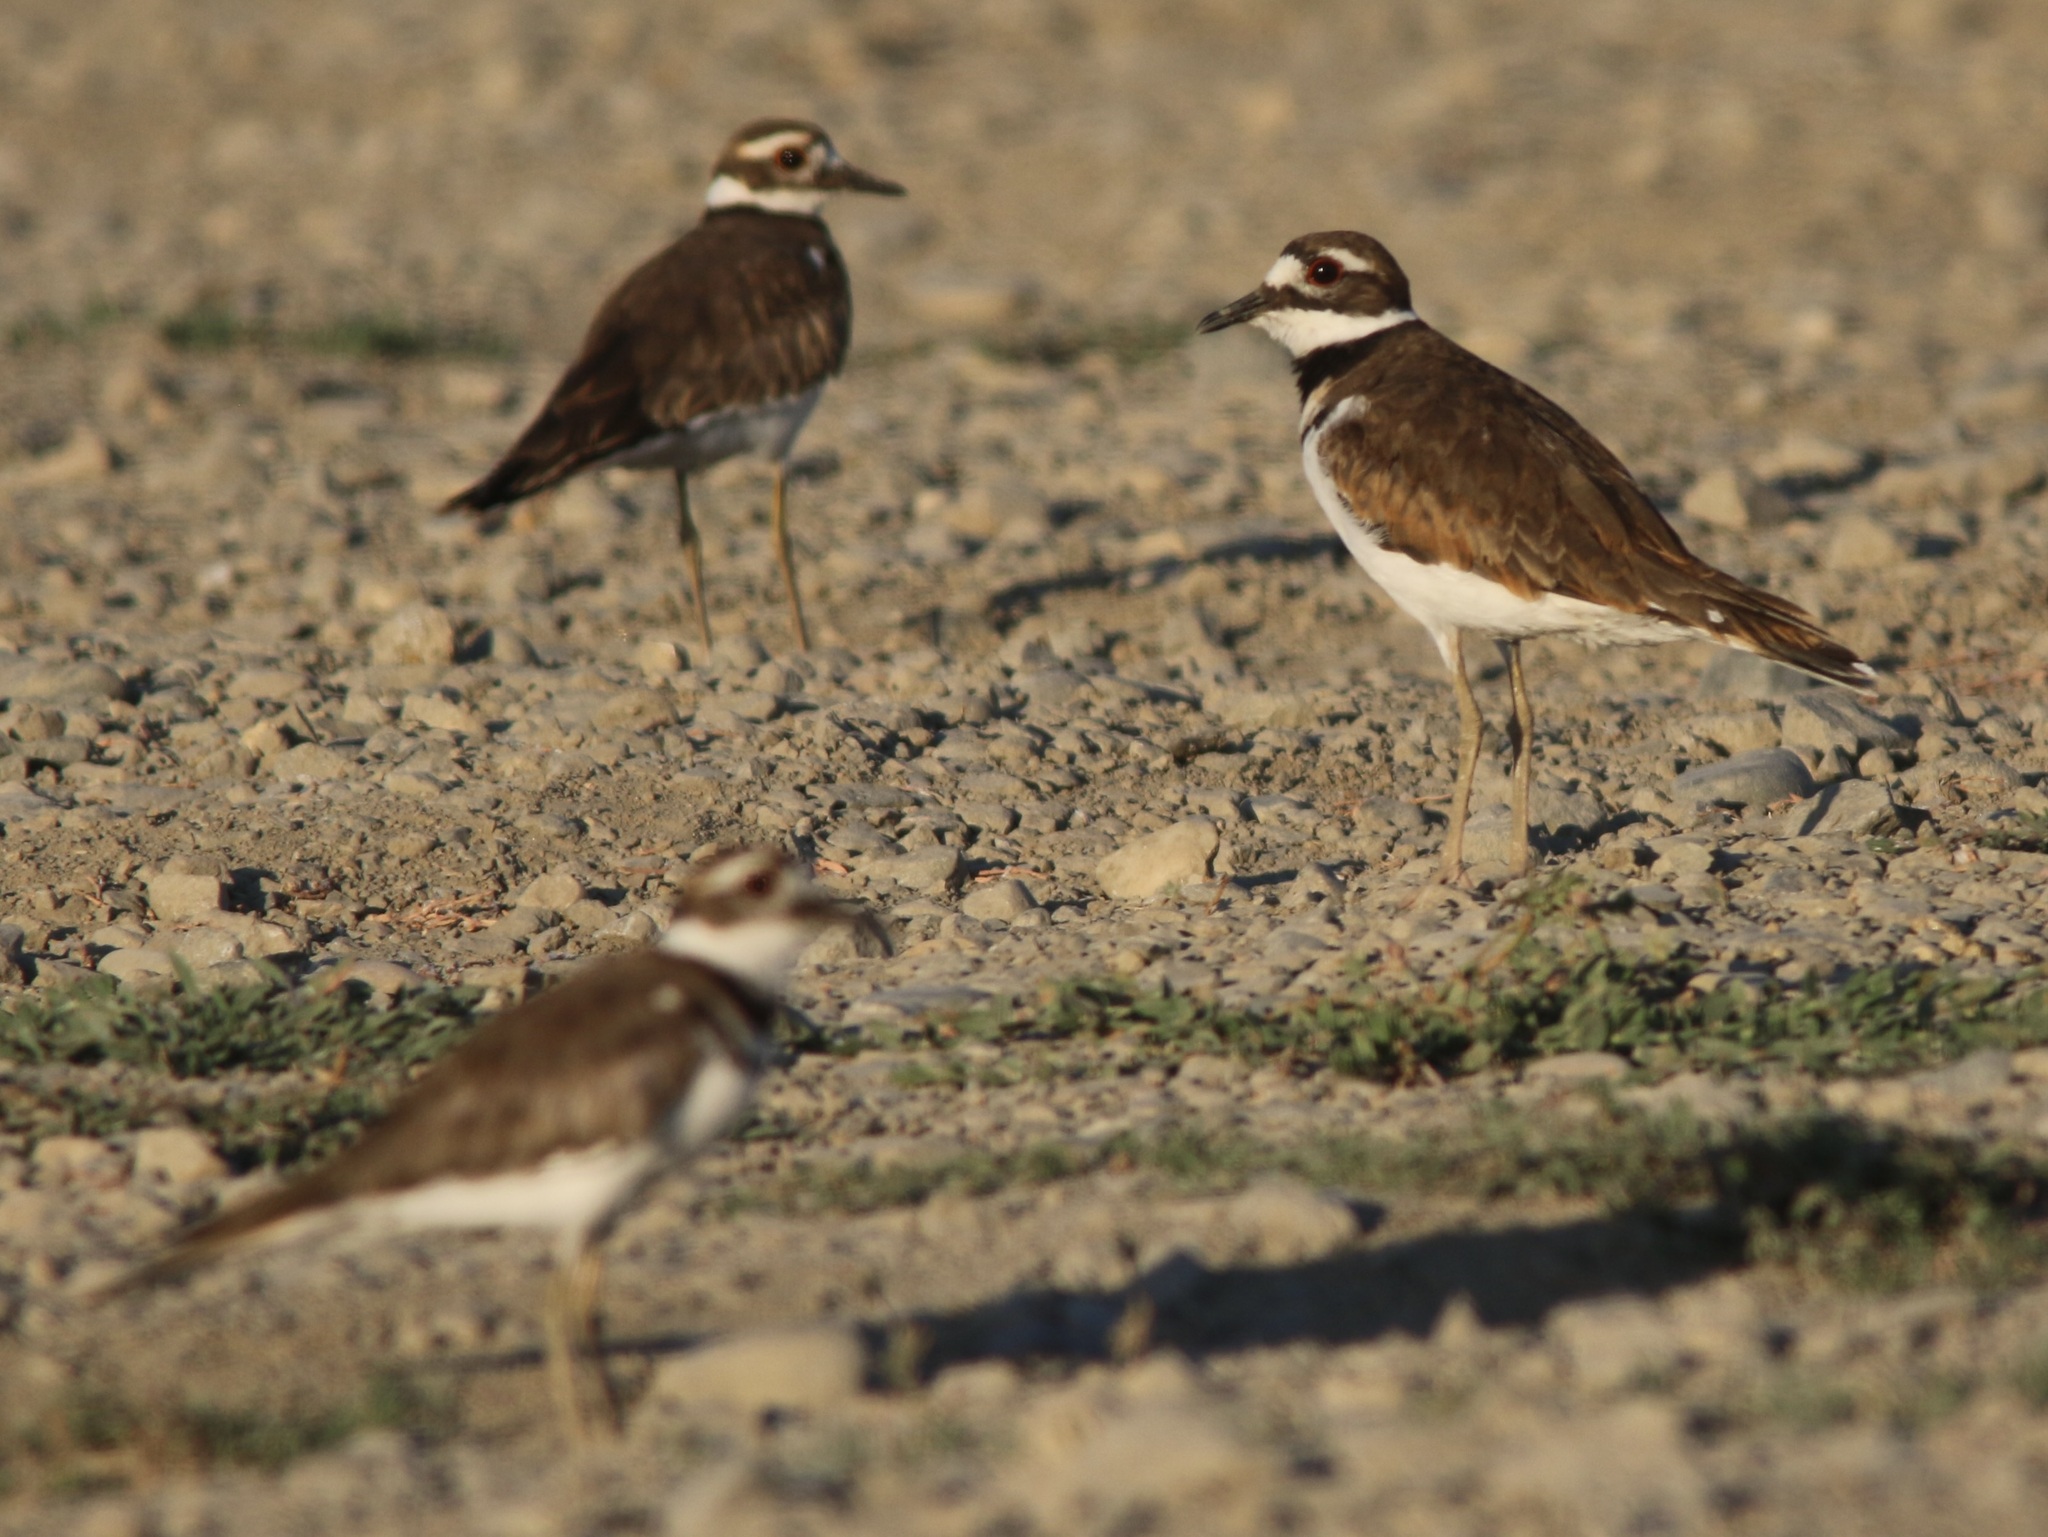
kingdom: Animalia
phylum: Chordata
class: Aves
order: Charadriiformes
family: Charadriidae
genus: Charadrius
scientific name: Charadrius vociferus
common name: Killdeer
